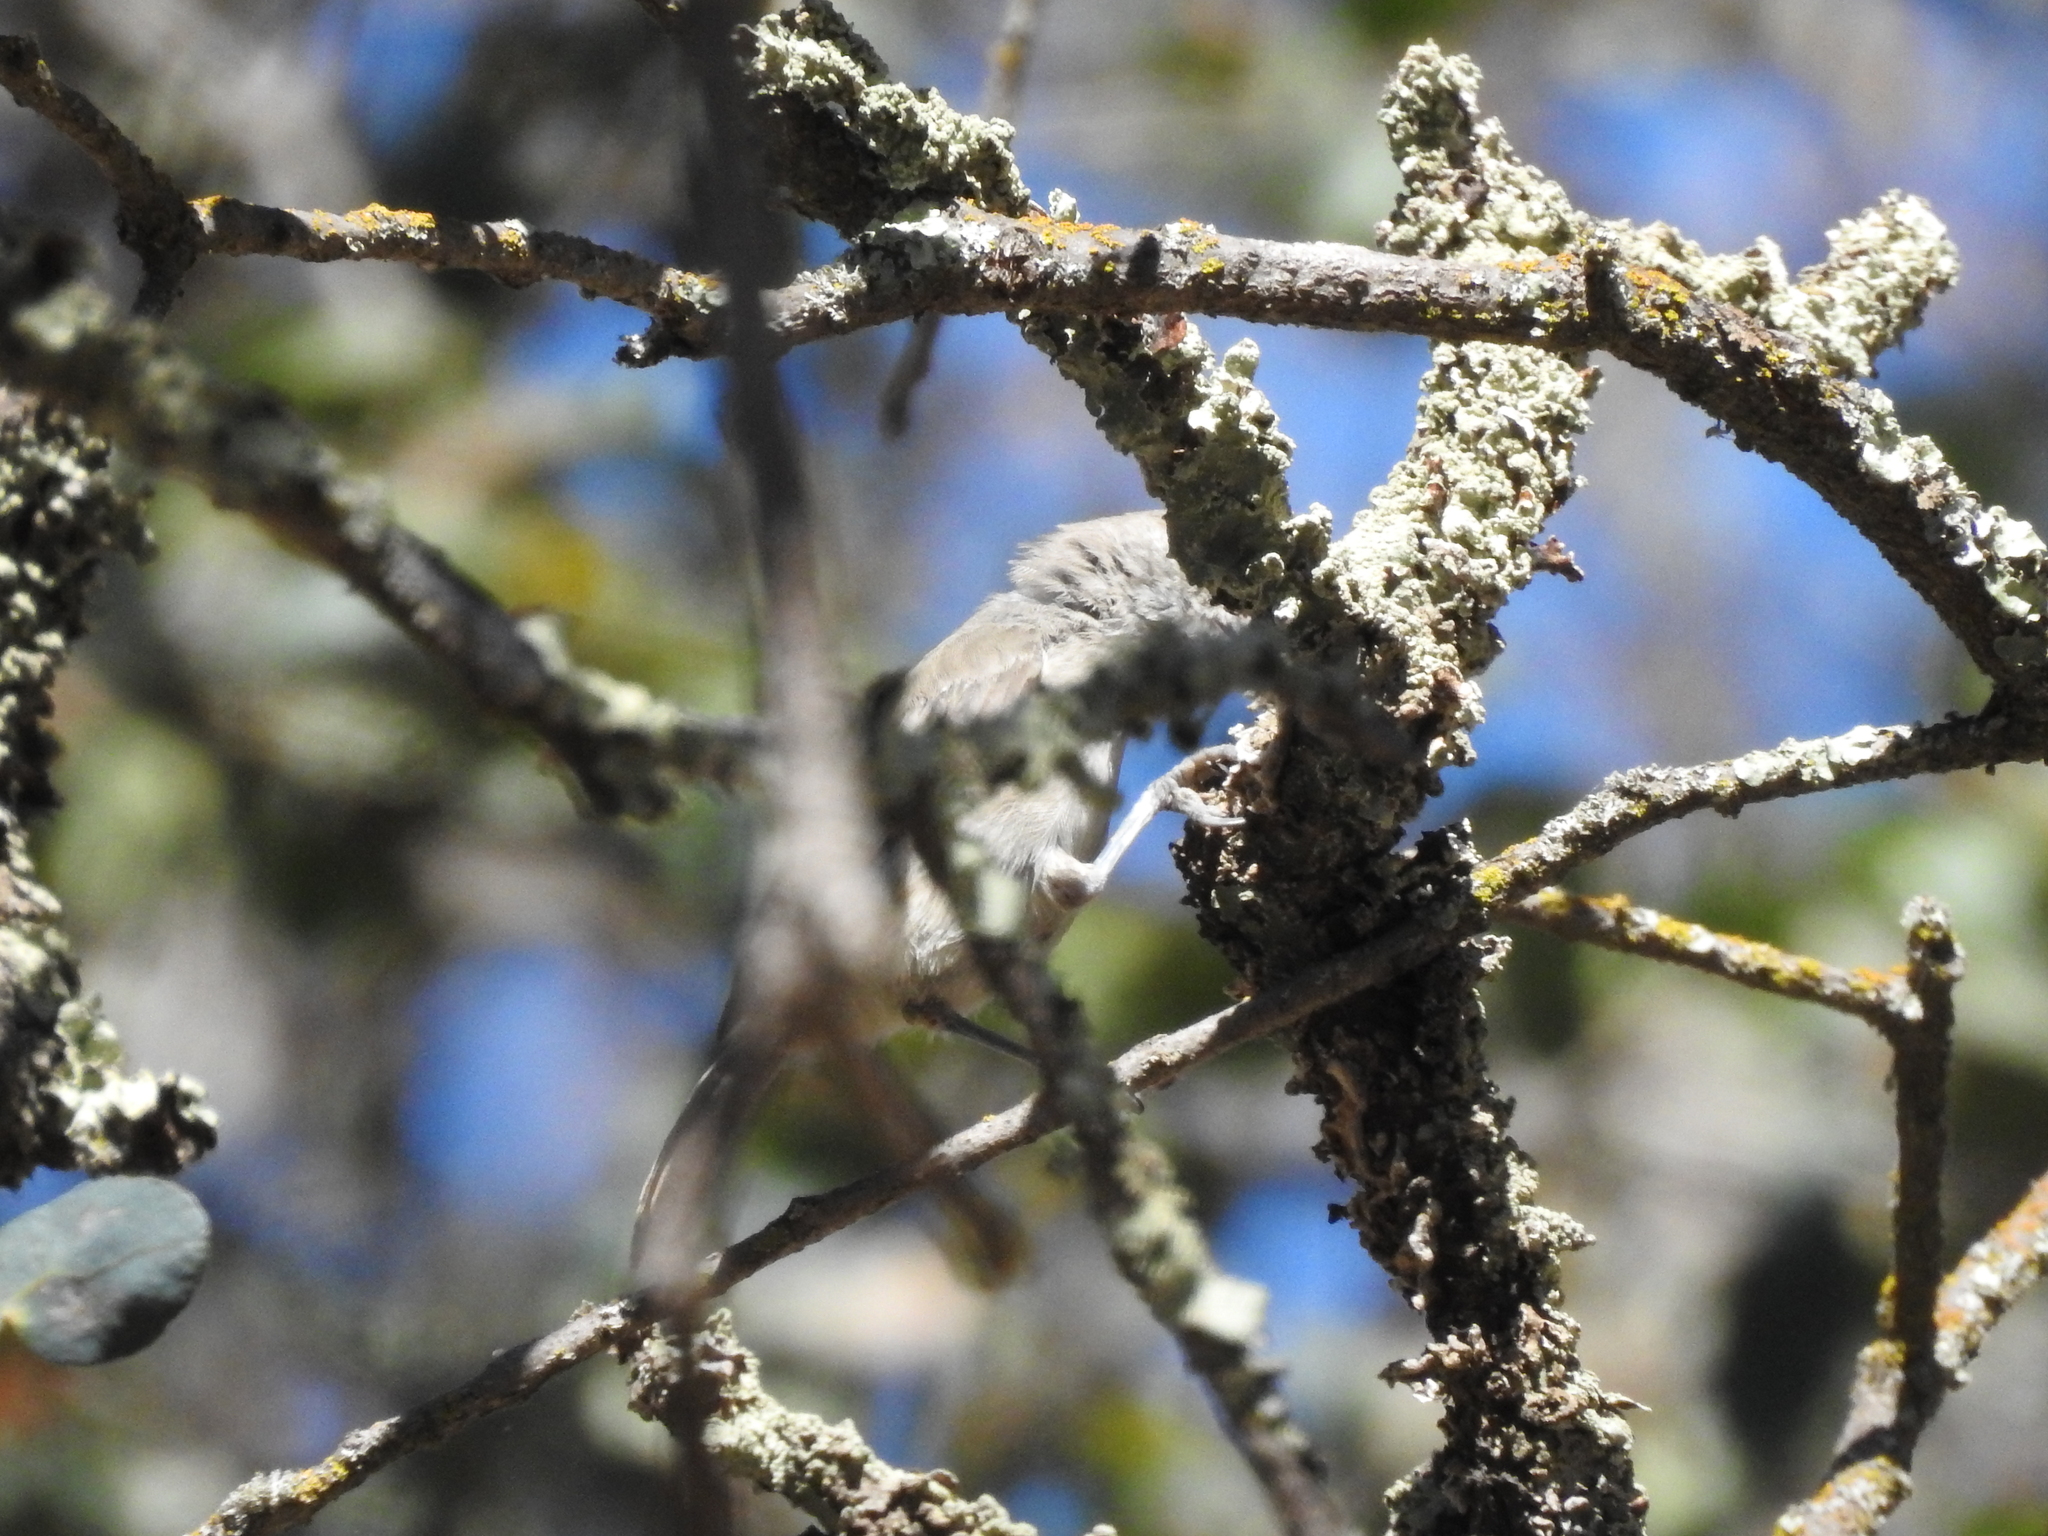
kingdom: Animalia
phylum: Chordata
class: Aves
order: Passeriformes
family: Paridae
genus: Baeolophus
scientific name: Baeolophus inornatus
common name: Oak titmouse
